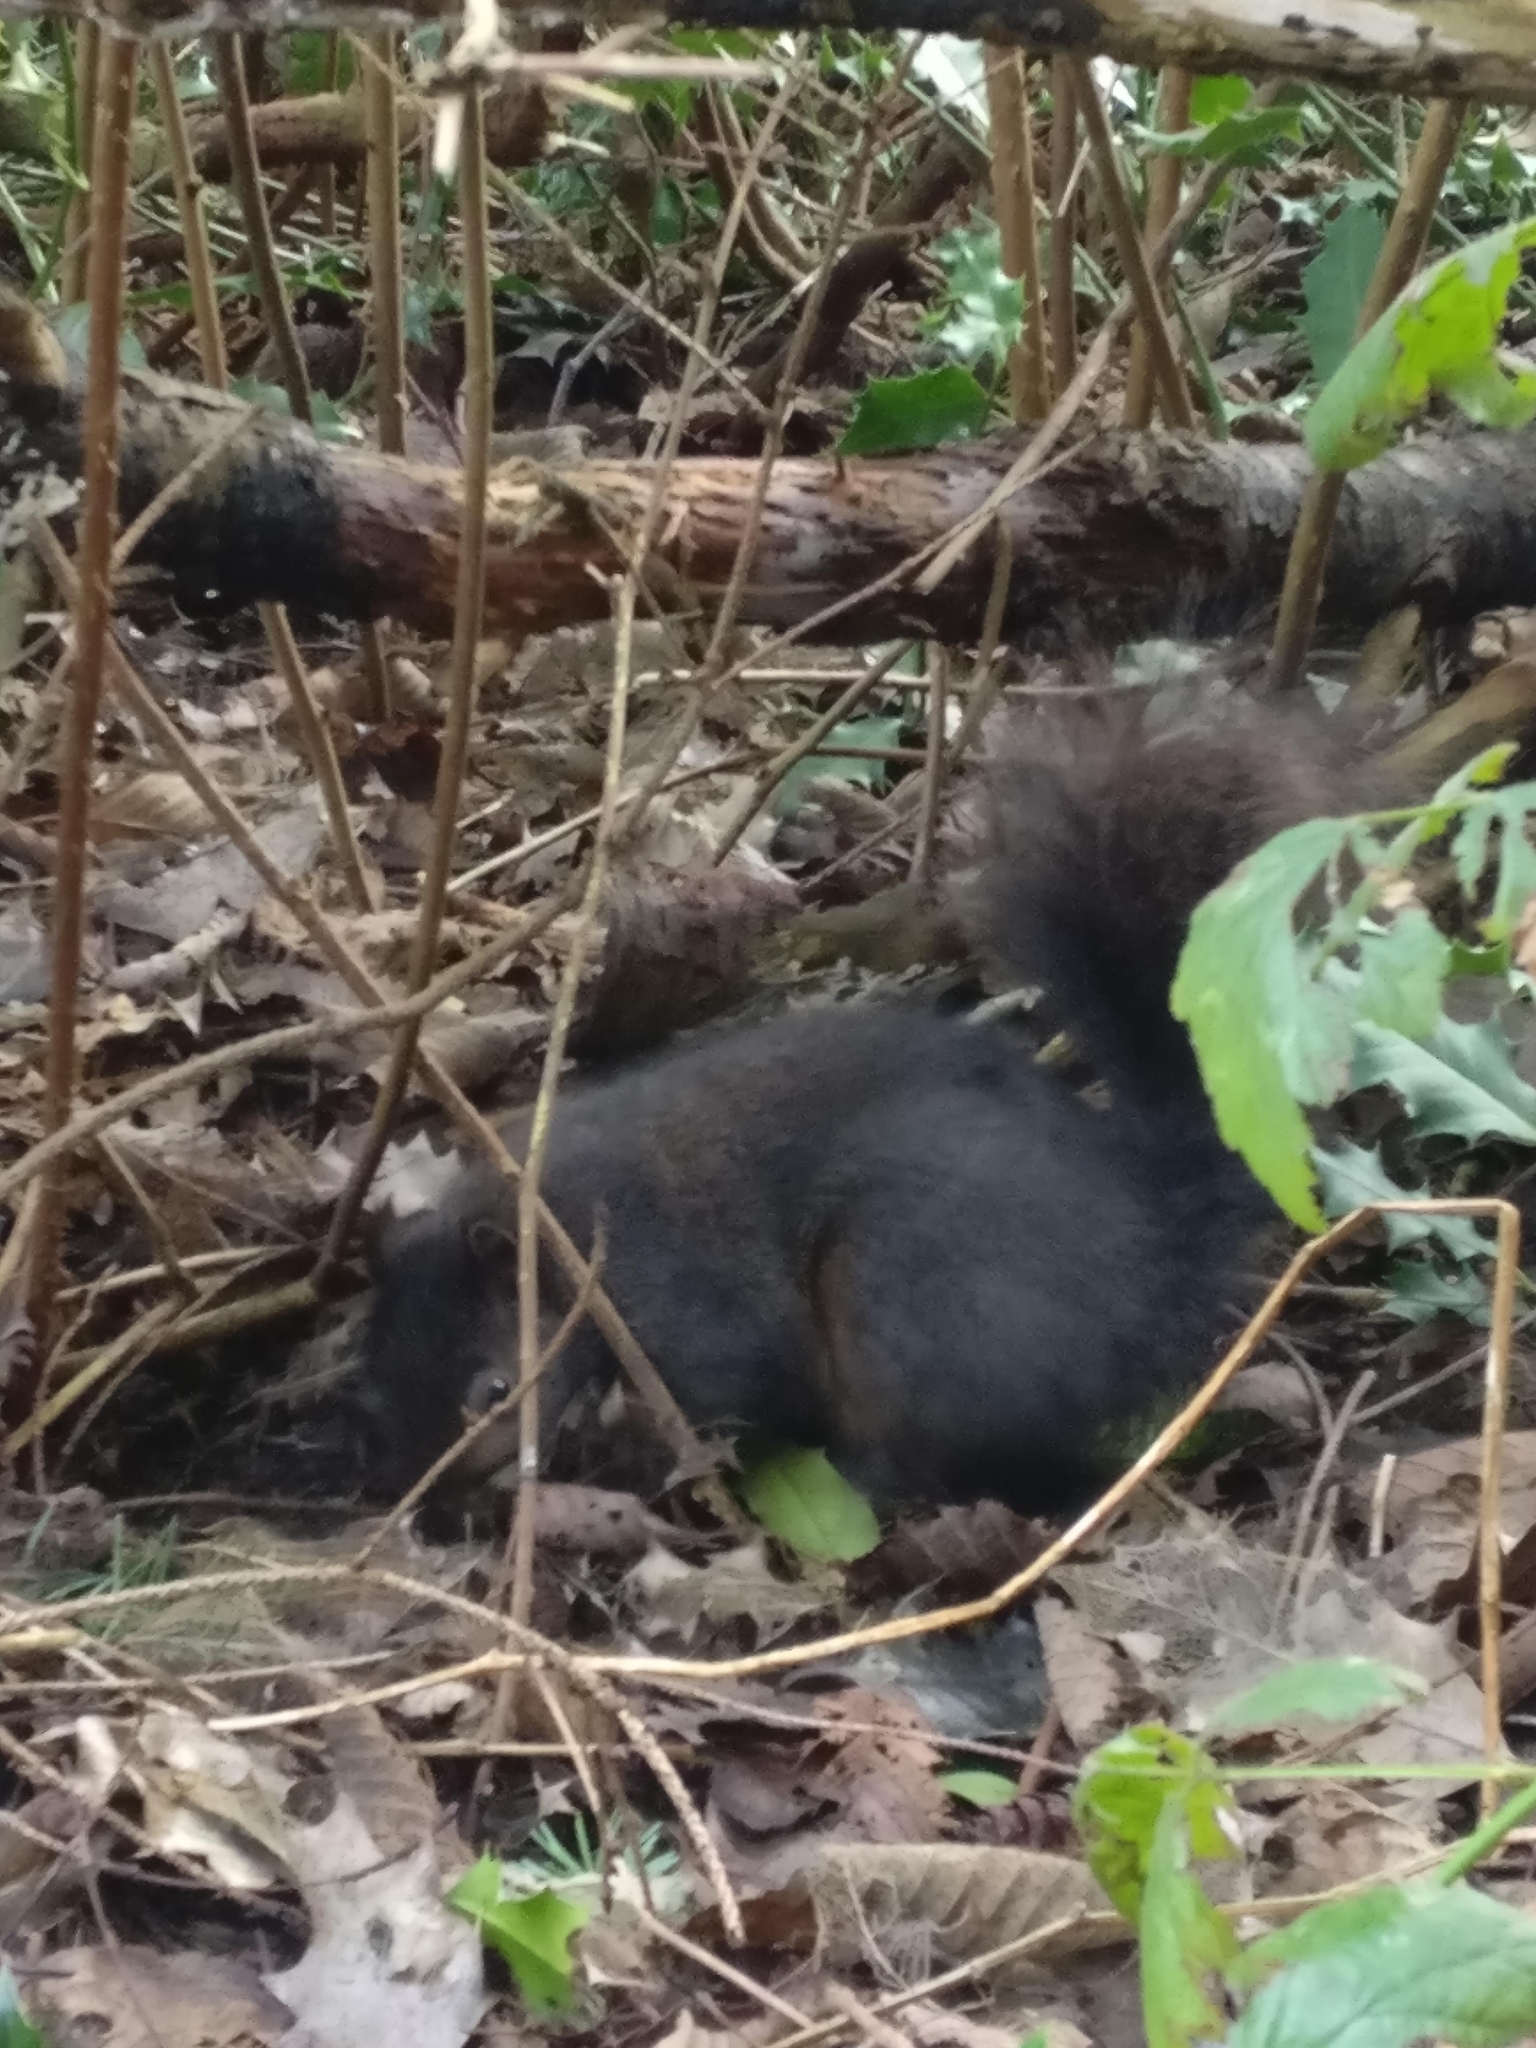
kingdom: Animalia
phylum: Chordata
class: Mammalia
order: Rodentia
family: Sciuridae
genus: Sciurus
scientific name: Sciurus carolinensis
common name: Eastern gray squirrel
